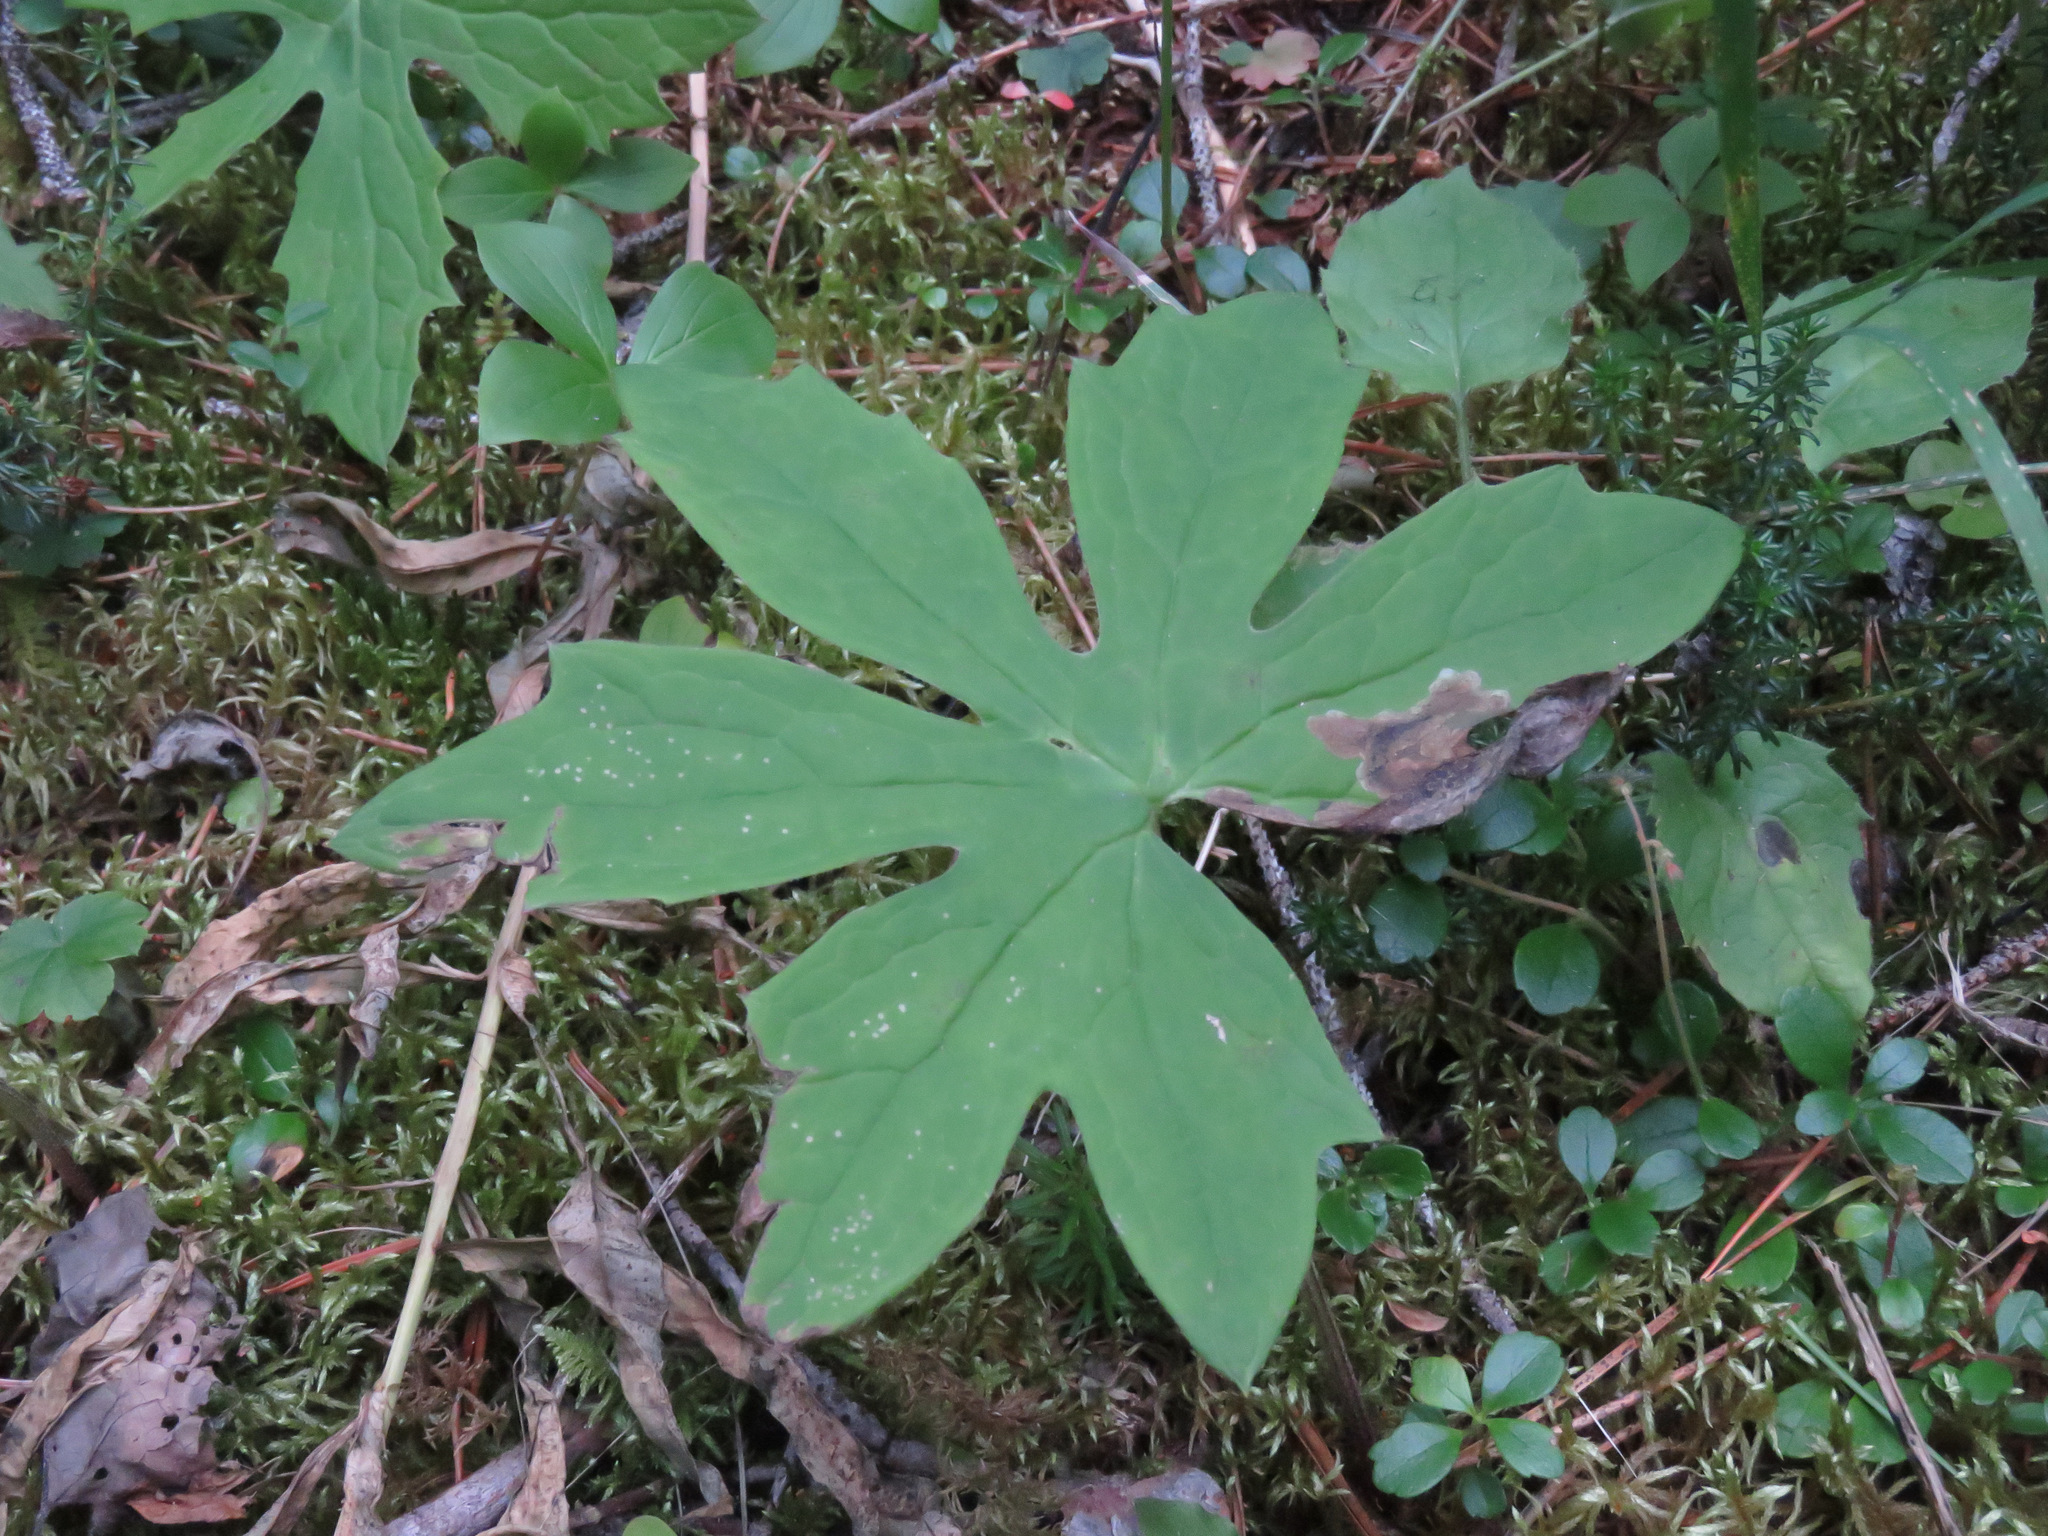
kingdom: Plantae
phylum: Tracheophyta
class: Magnoliopsida
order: Asterales
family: Asteraceae
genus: Petasites
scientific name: Petasites frigidus
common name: Arctic butterbur
